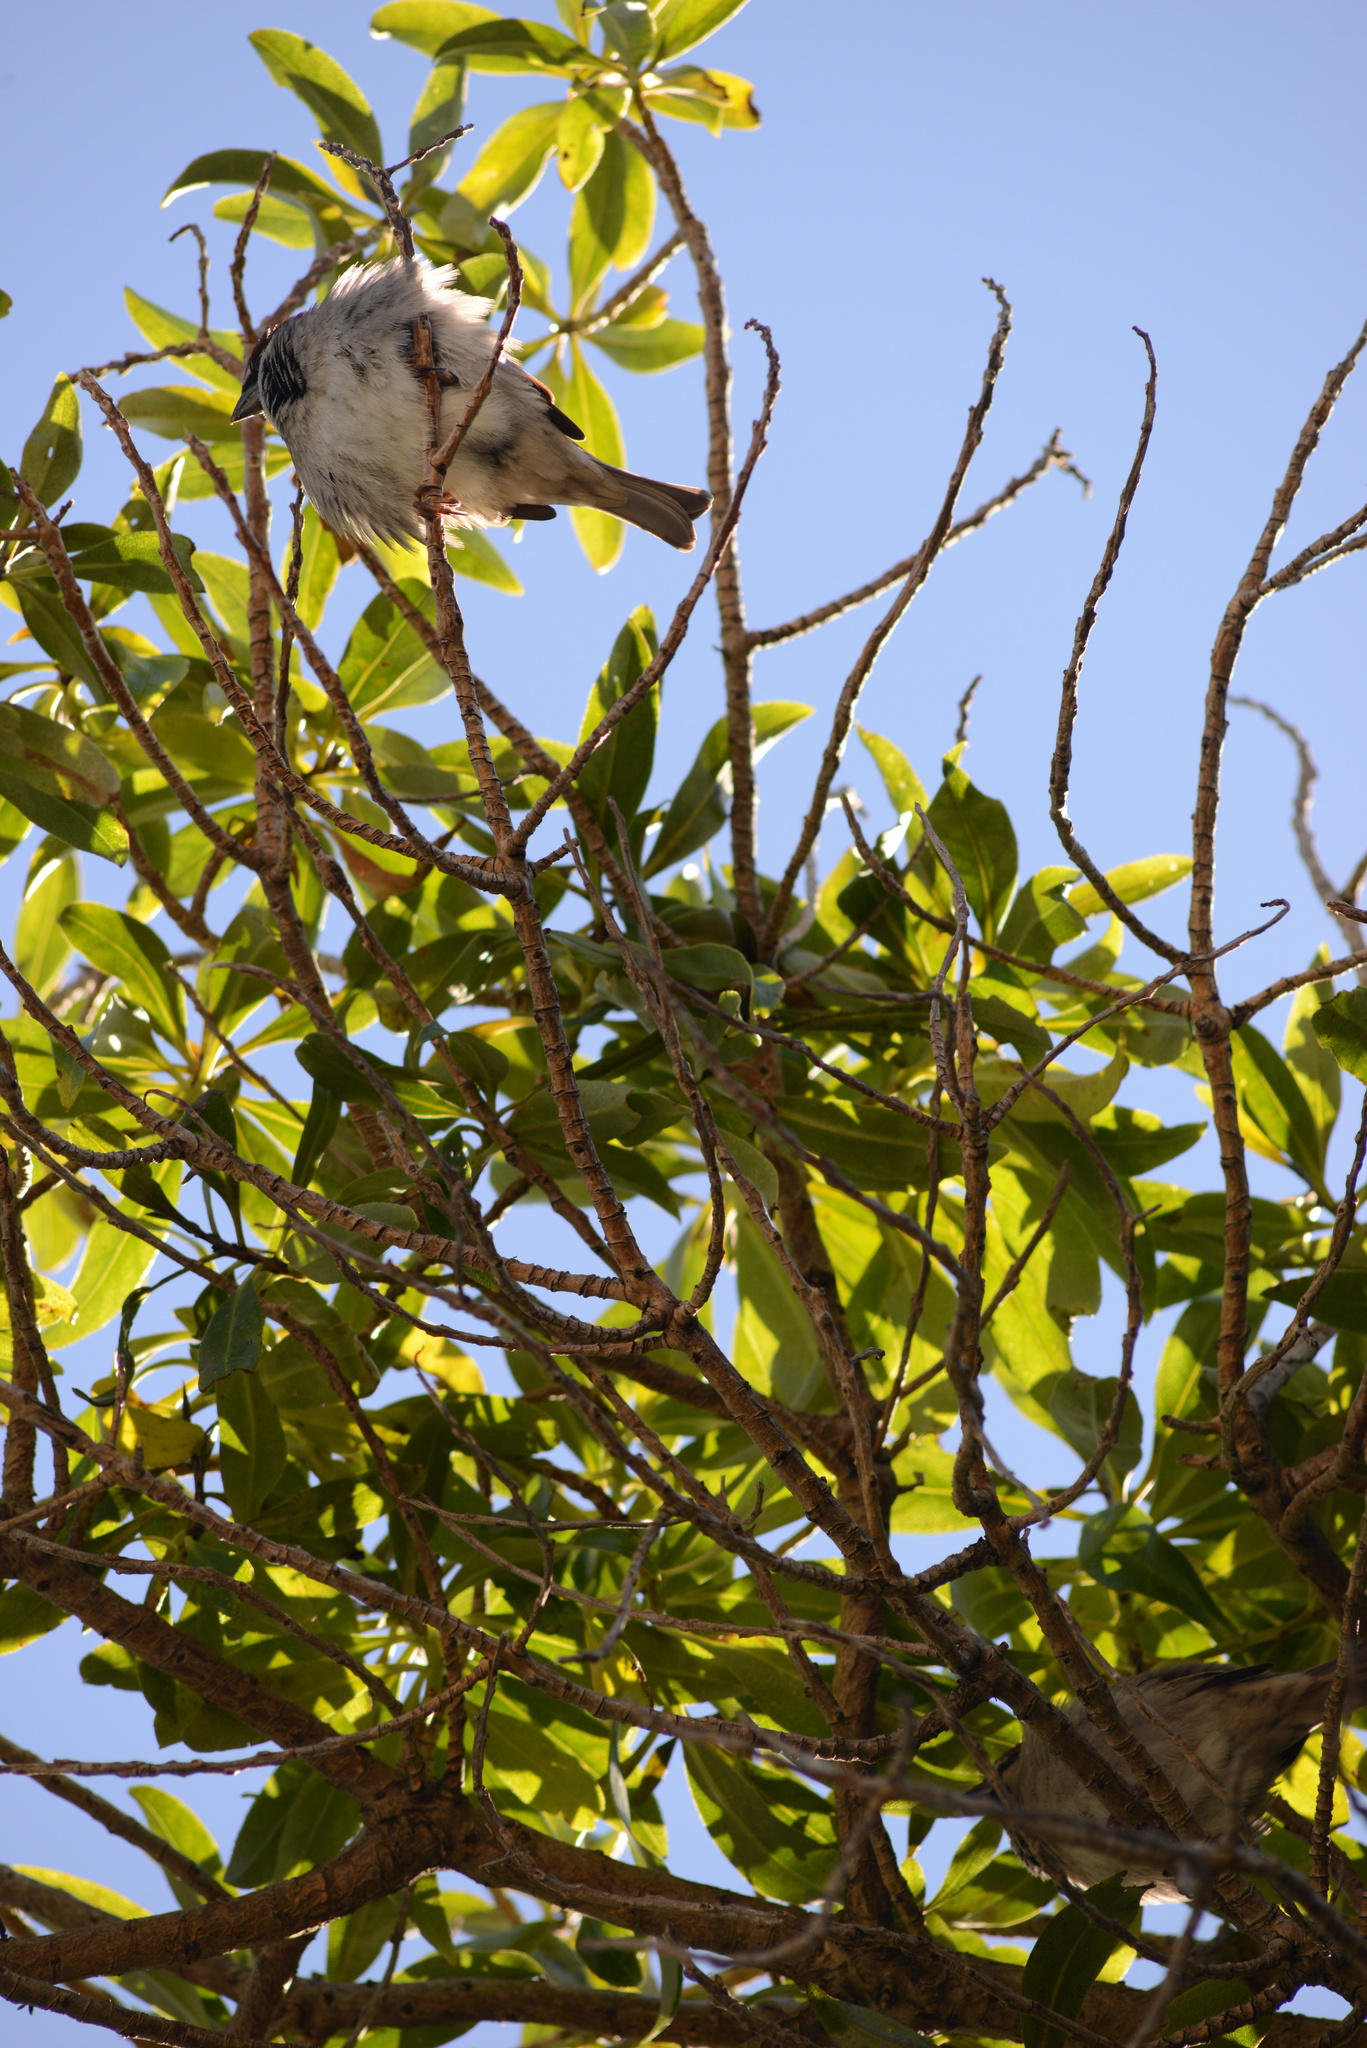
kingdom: Animalia
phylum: Chordata
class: Aves
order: Passeriformes
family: Passeridae
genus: Passer
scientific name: Passer domesticus
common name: House sparrow
